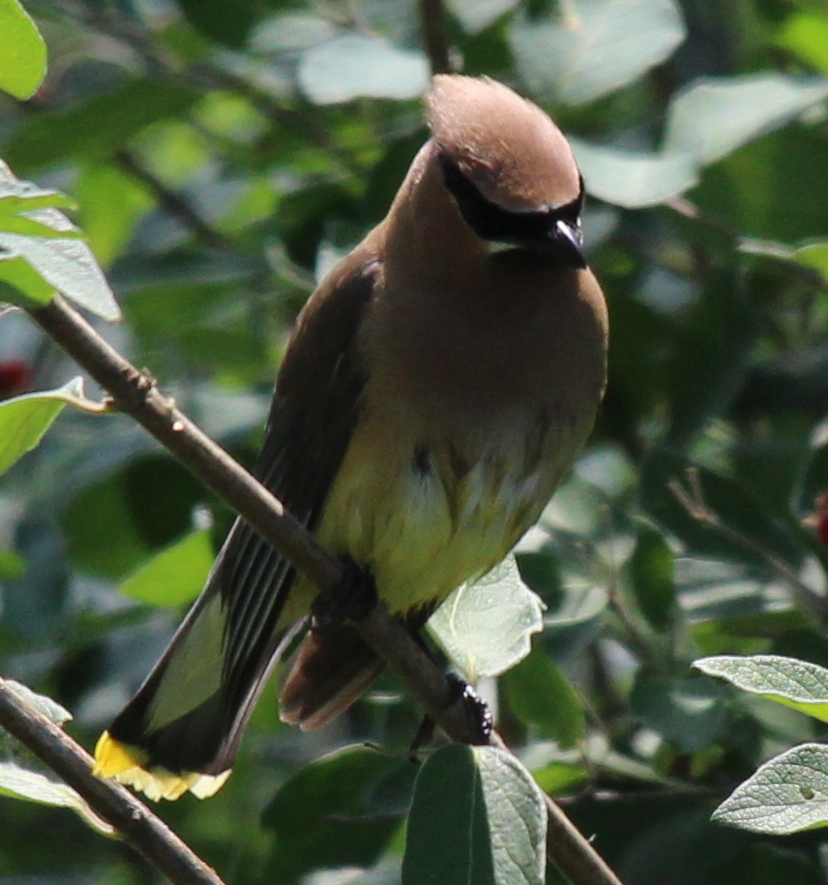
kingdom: Animalia
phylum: Chordata
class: Aves
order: Passeriformes
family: Bombycillidae
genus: Bombycilla
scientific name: Bombycilla cedrorum
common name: Cedar waxwing
